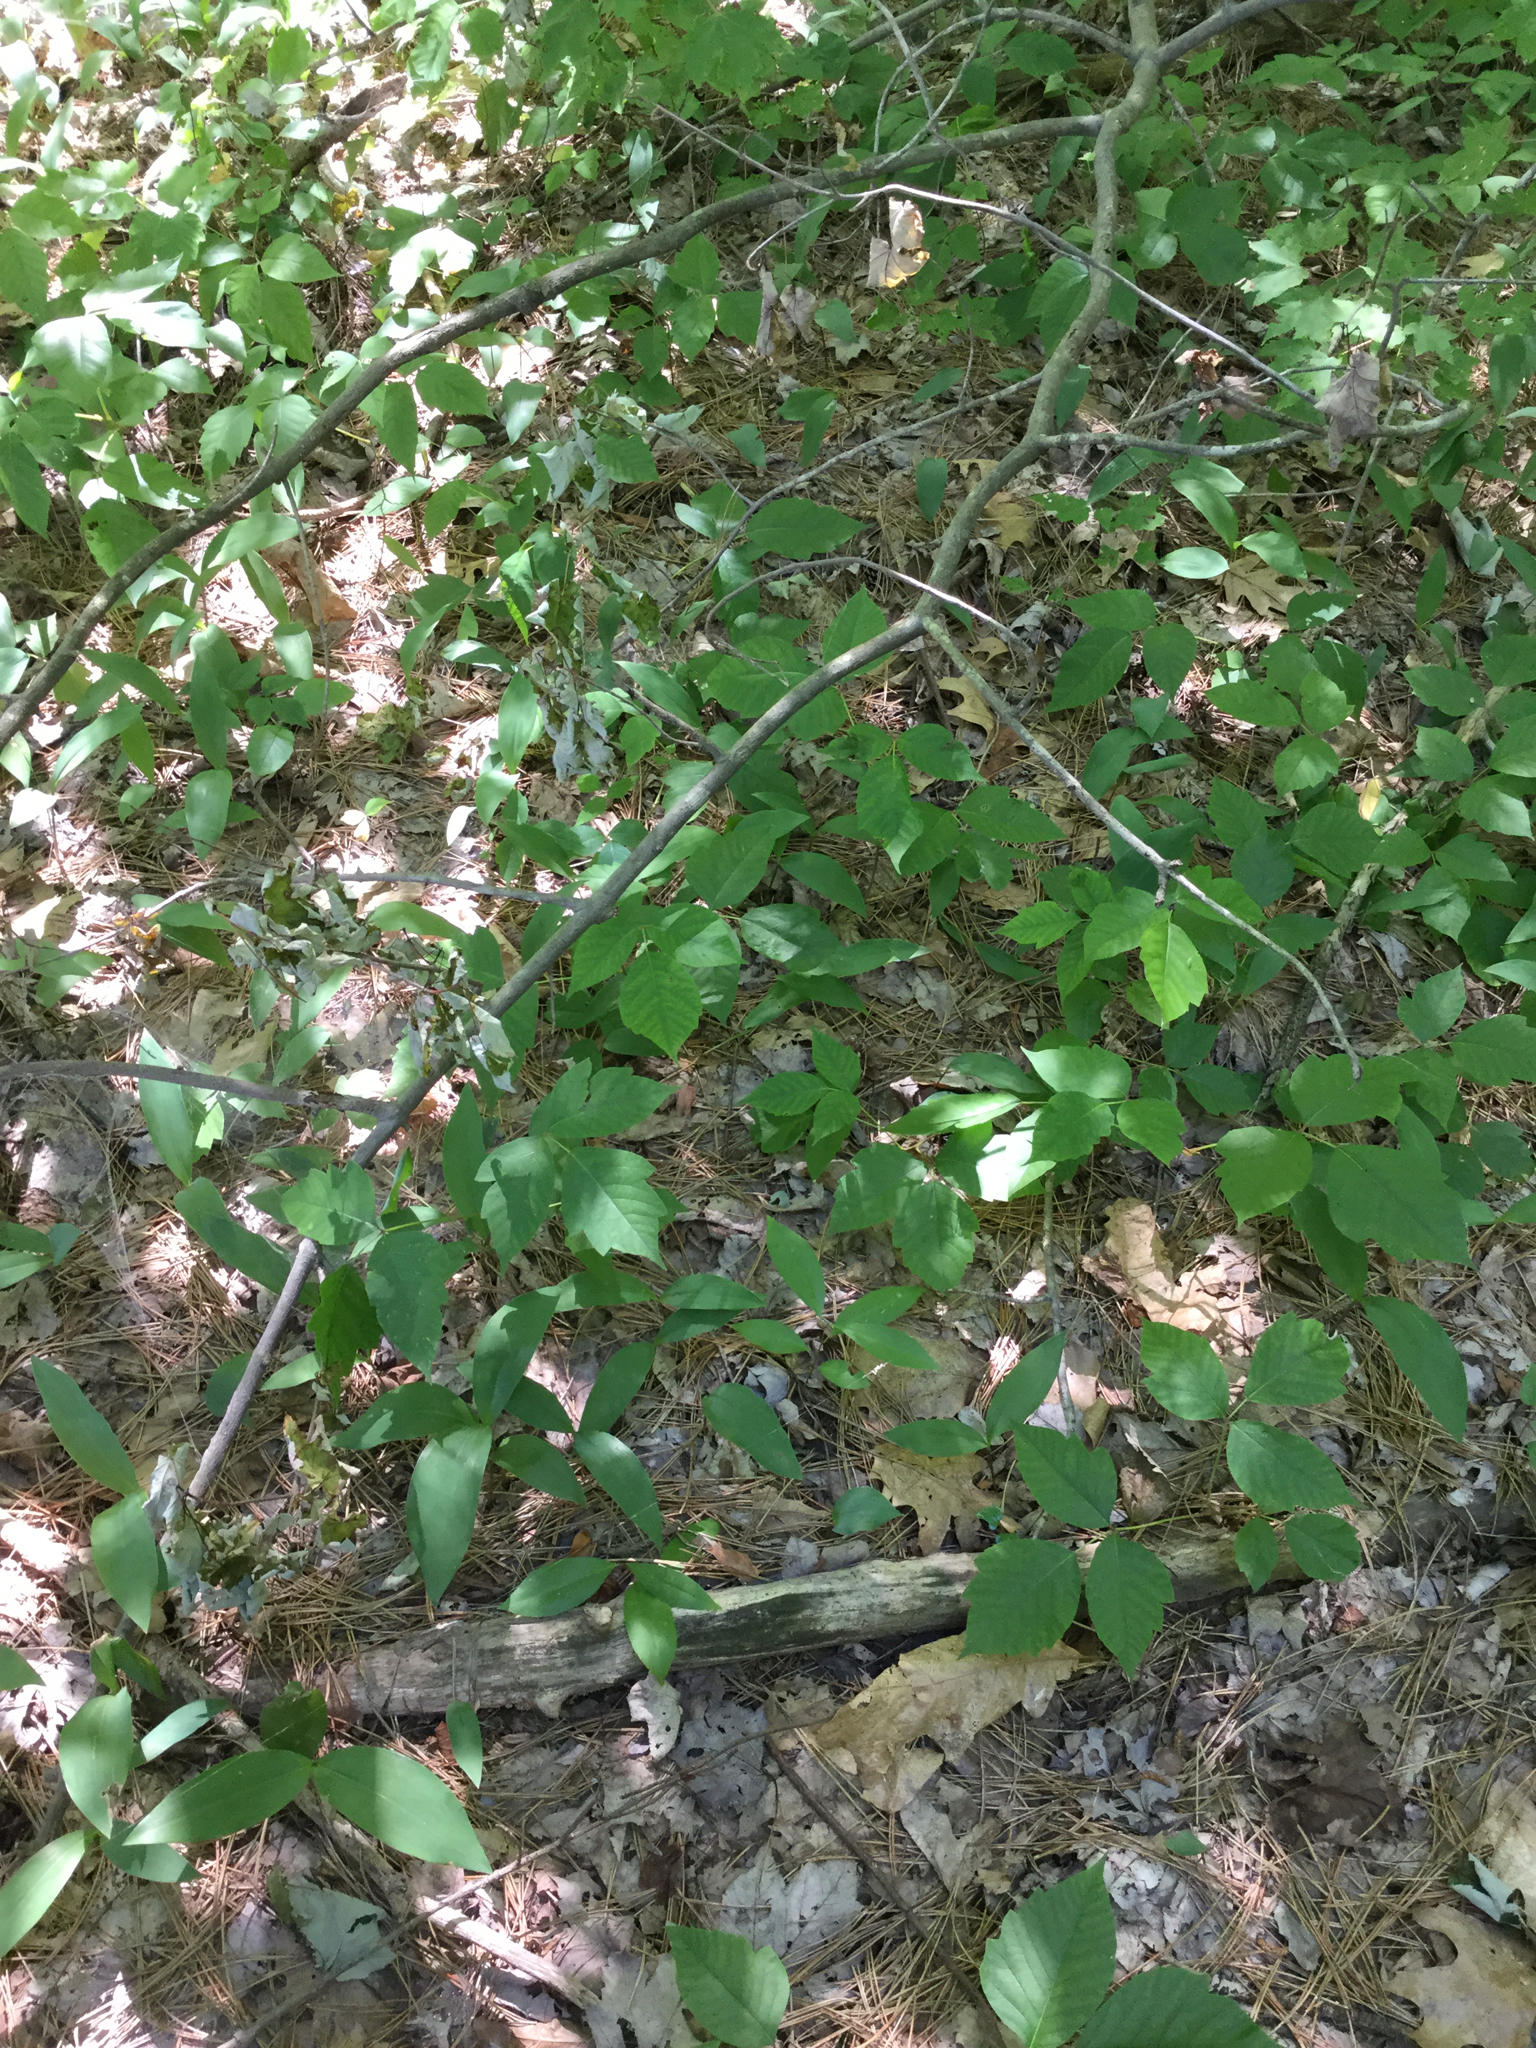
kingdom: Plantae
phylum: Tracheophyta
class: Liliopsida
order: Asparagales
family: Asparagaceae
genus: Convallaria
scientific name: Convallaria majalis
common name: Lily-of-the-valley
